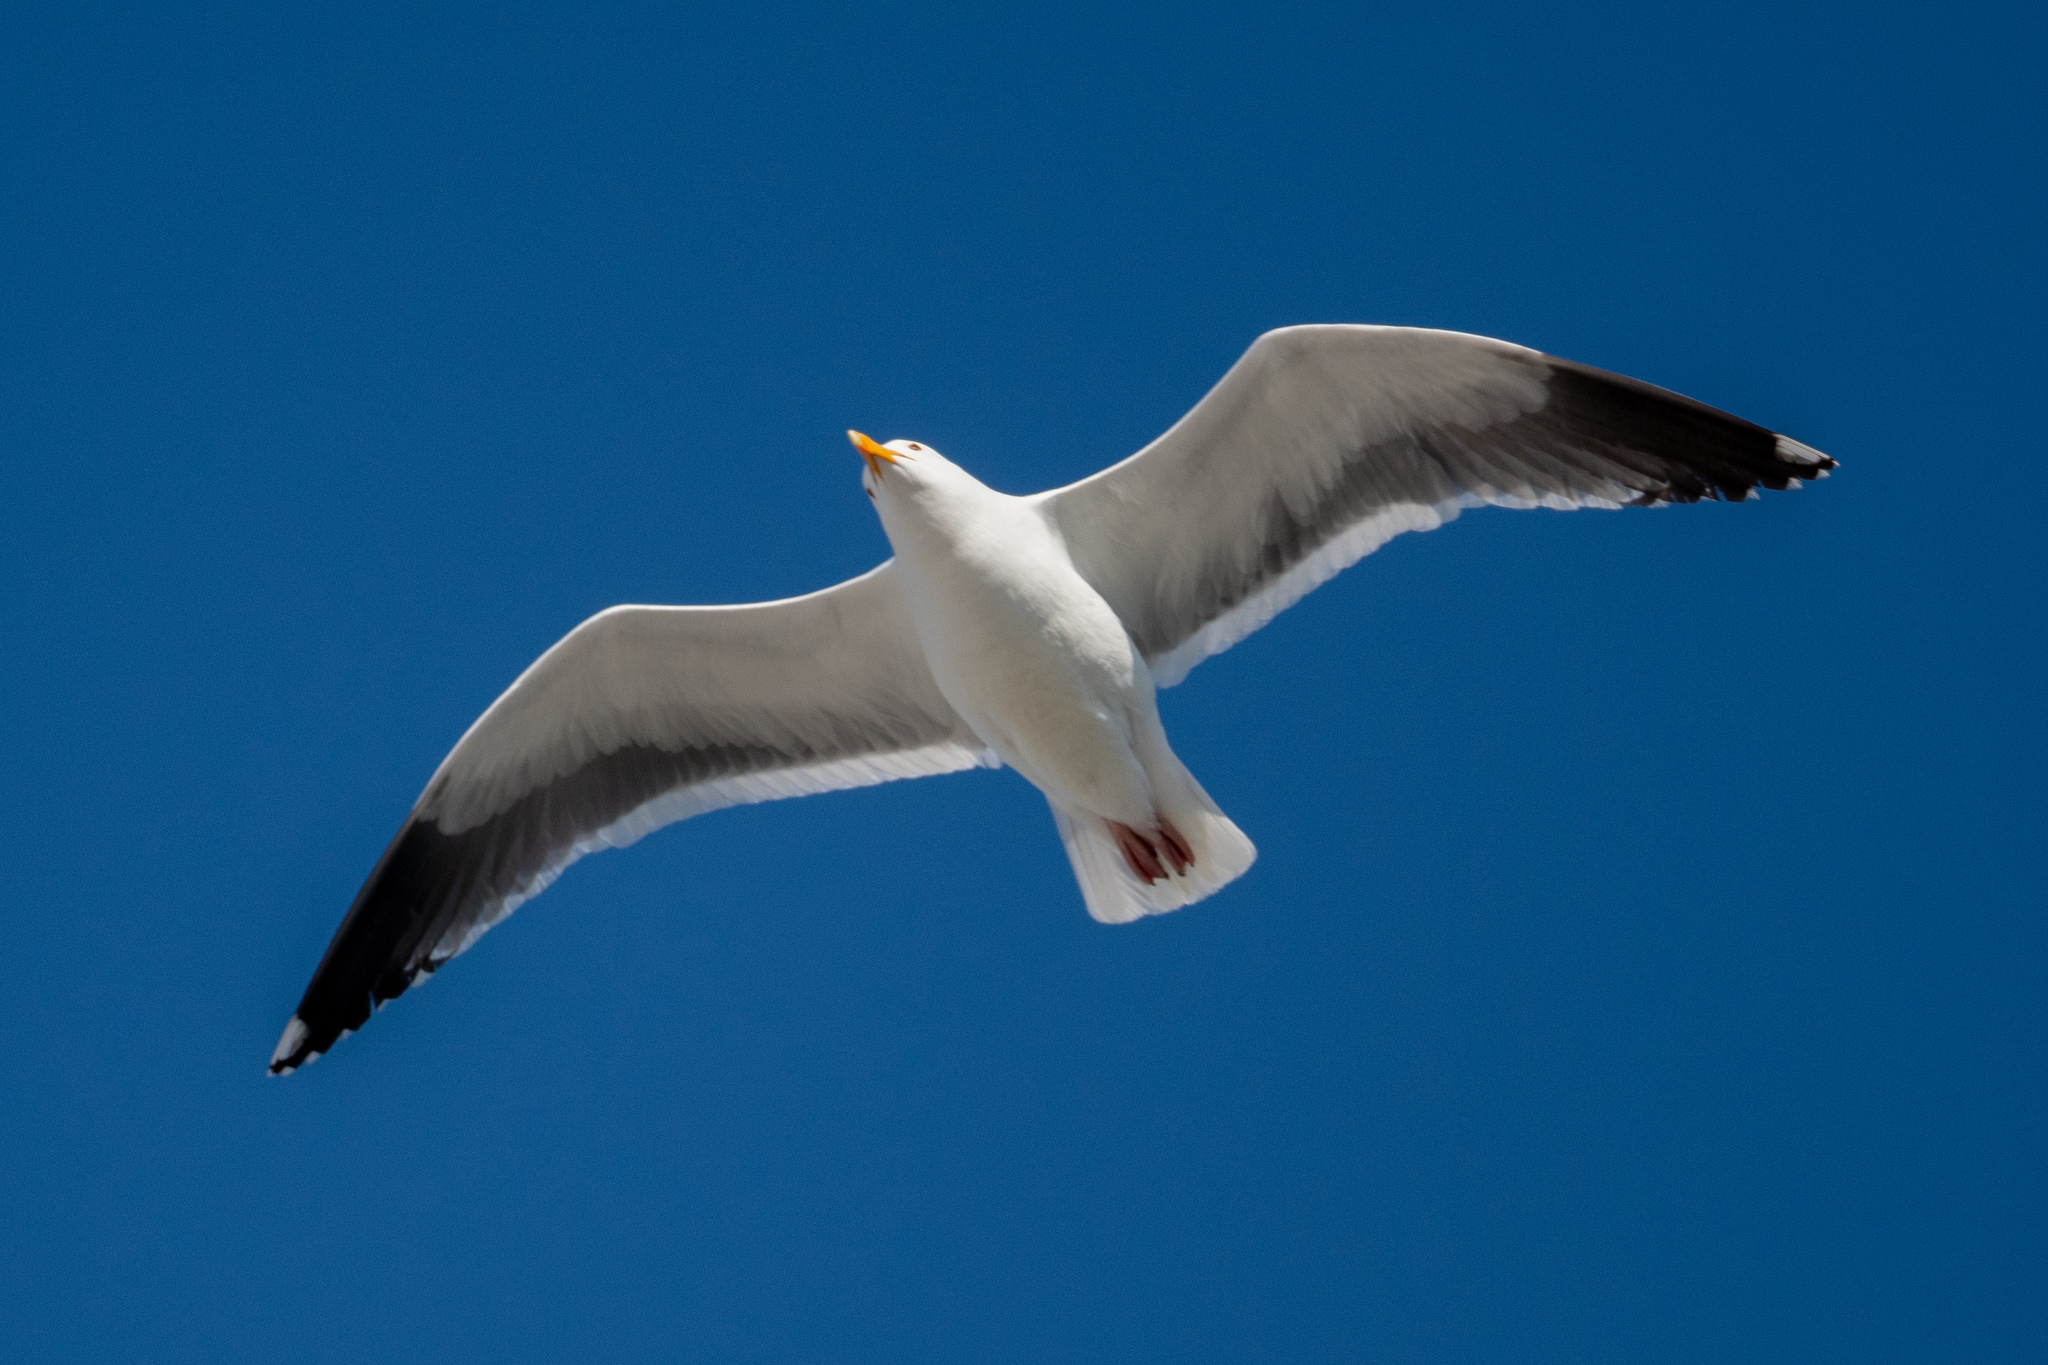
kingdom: Animalia
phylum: Chordata
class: Aves
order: Charadriiformes
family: Laridae
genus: Larus
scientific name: Larus occidentalis
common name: Western gull
